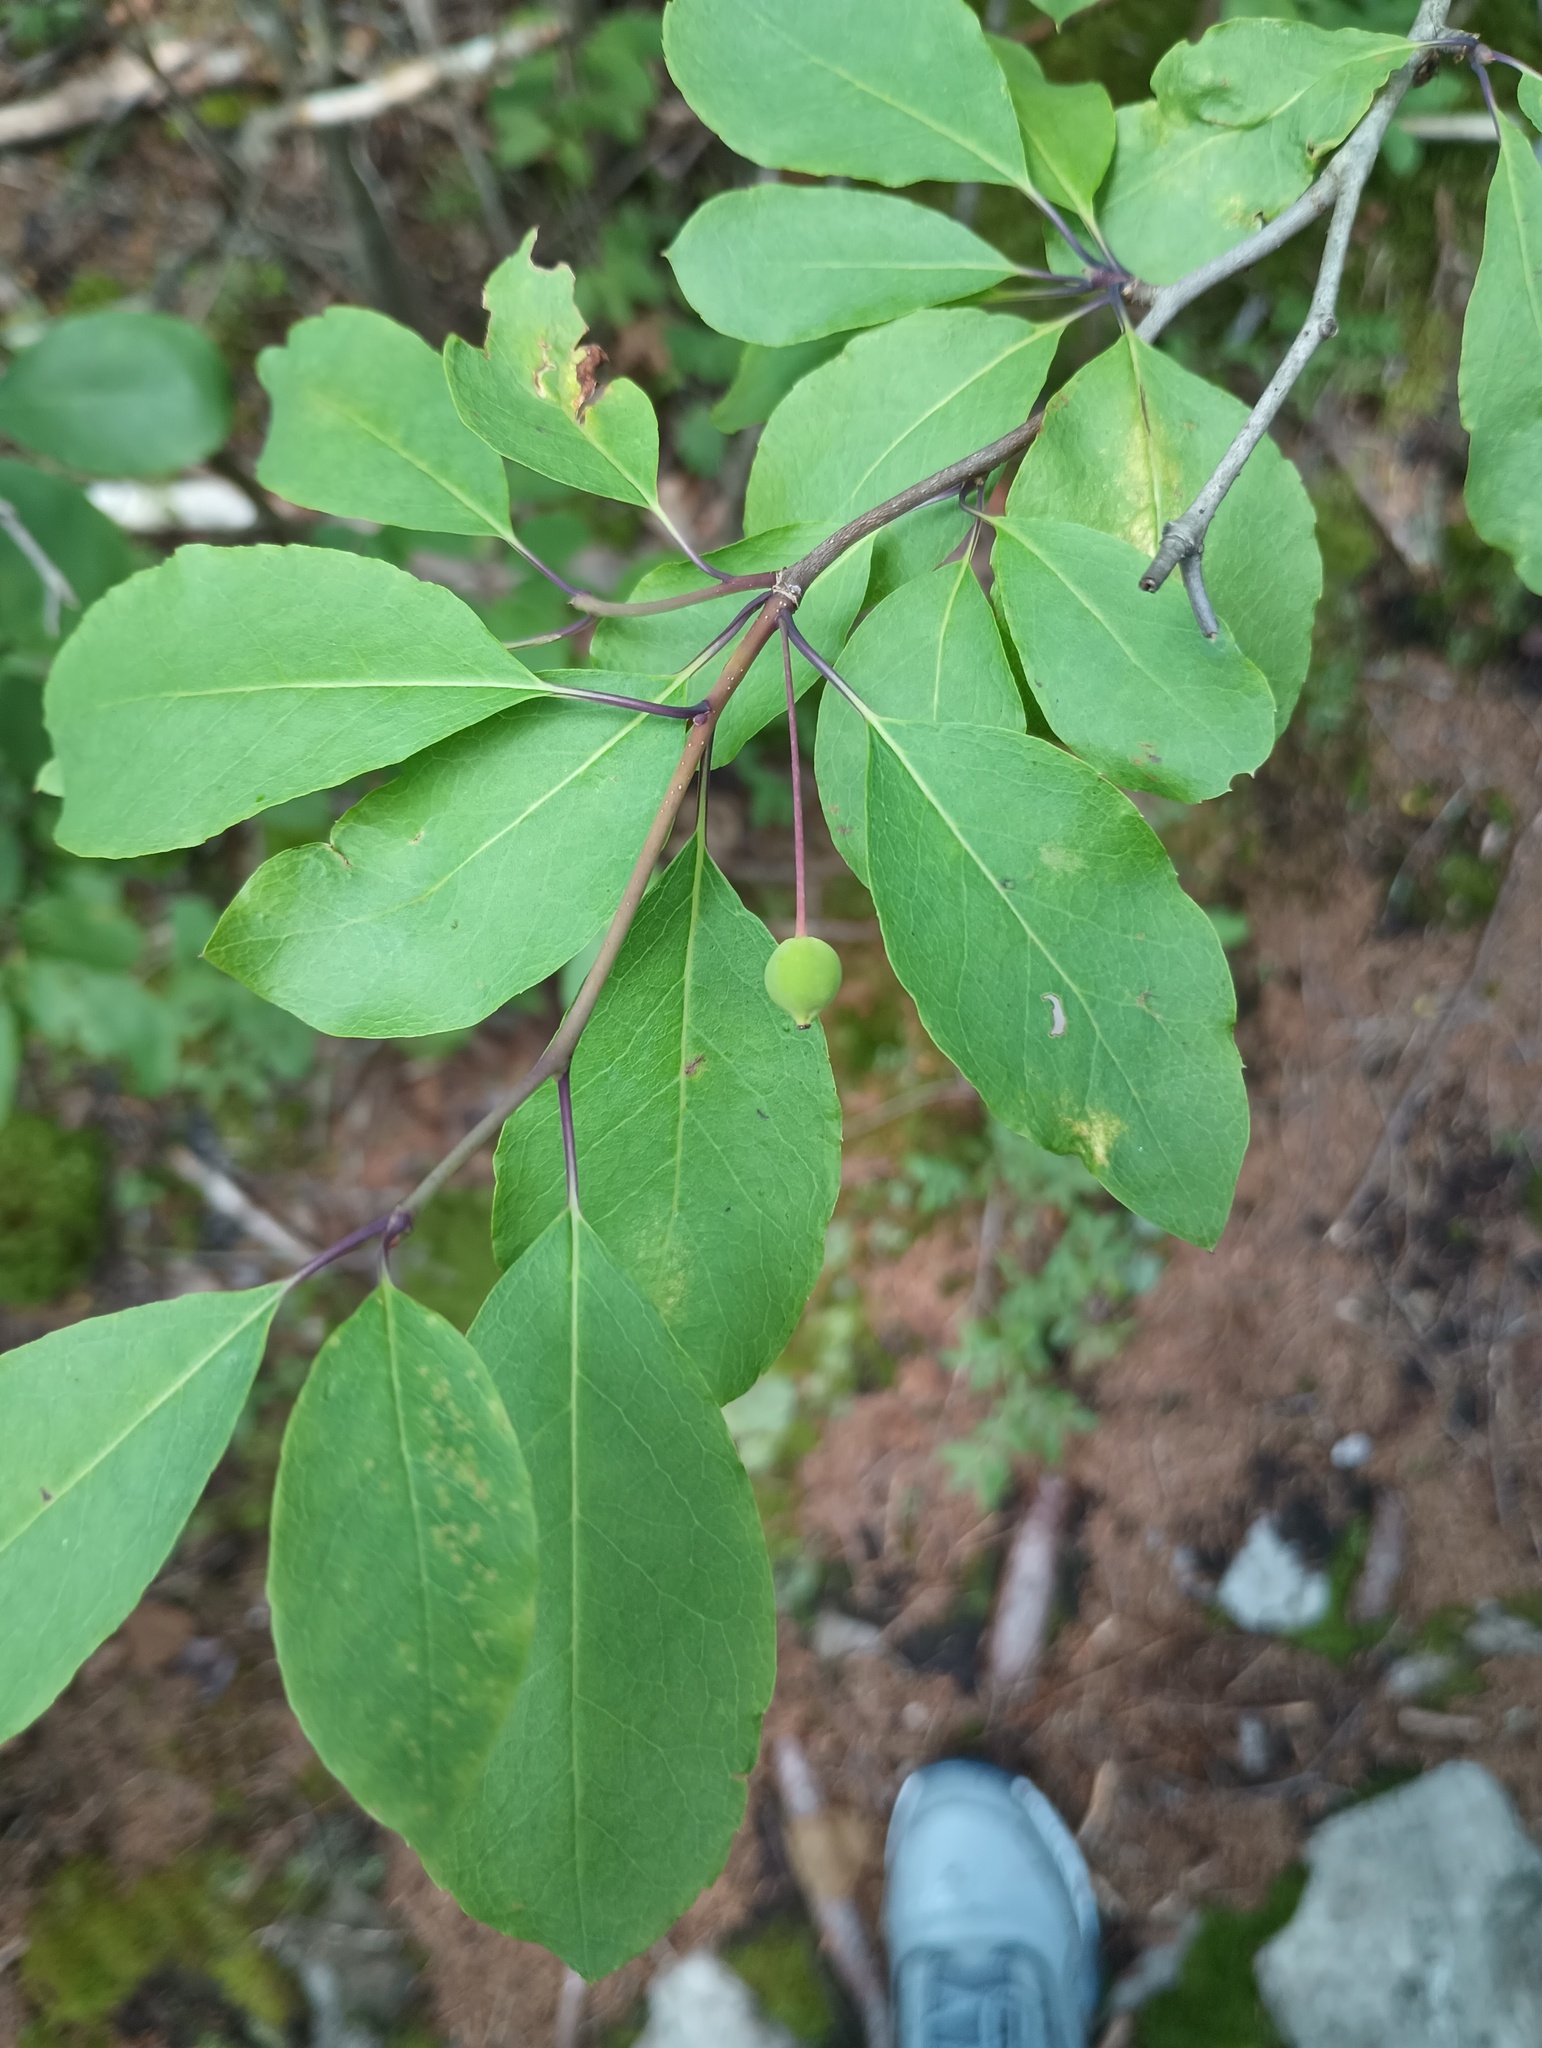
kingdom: Plantae
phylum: Tracheophyta
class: Magnoliopsida
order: Aquifoliales
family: Aquifoliaceae
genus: Ilex
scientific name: Ilex mucronata
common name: Catberry
